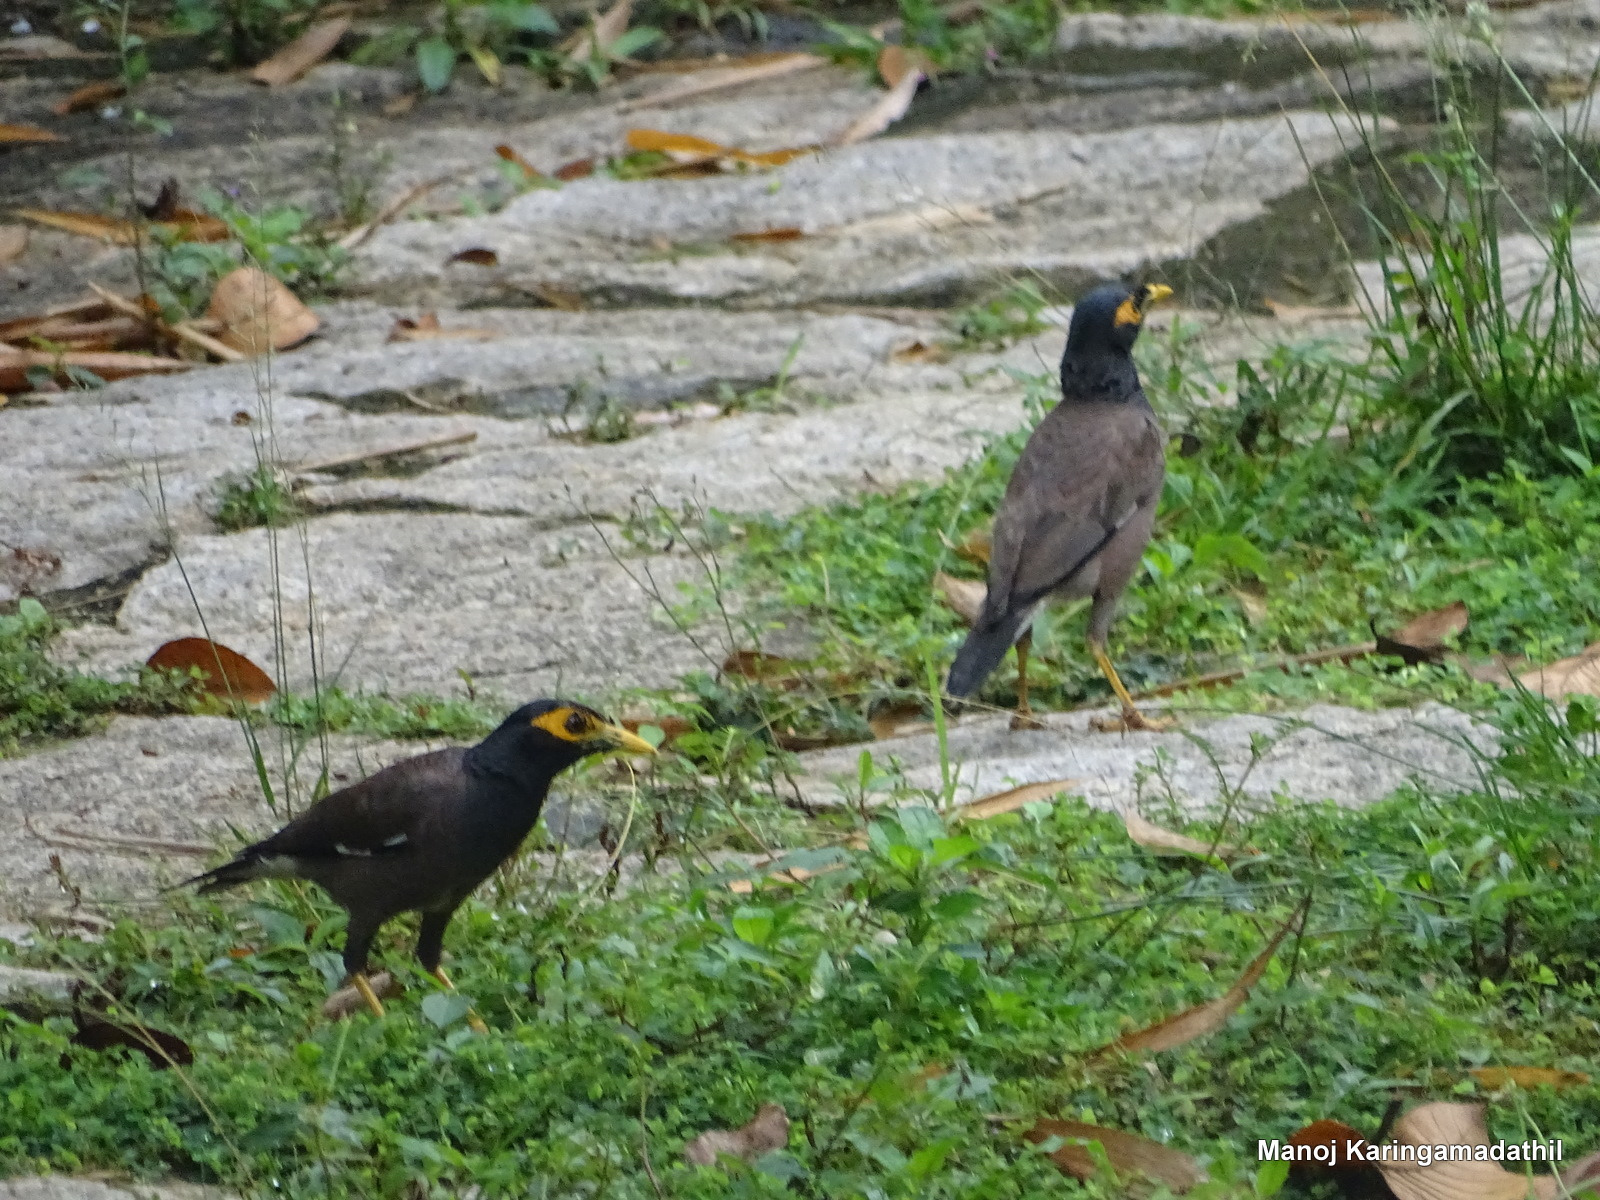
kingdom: Animalia
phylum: Chordata
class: Aves
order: Passeriformes
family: Sturnidae
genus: Acridotheres
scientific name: Acridotheres tristis
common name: Common myna
